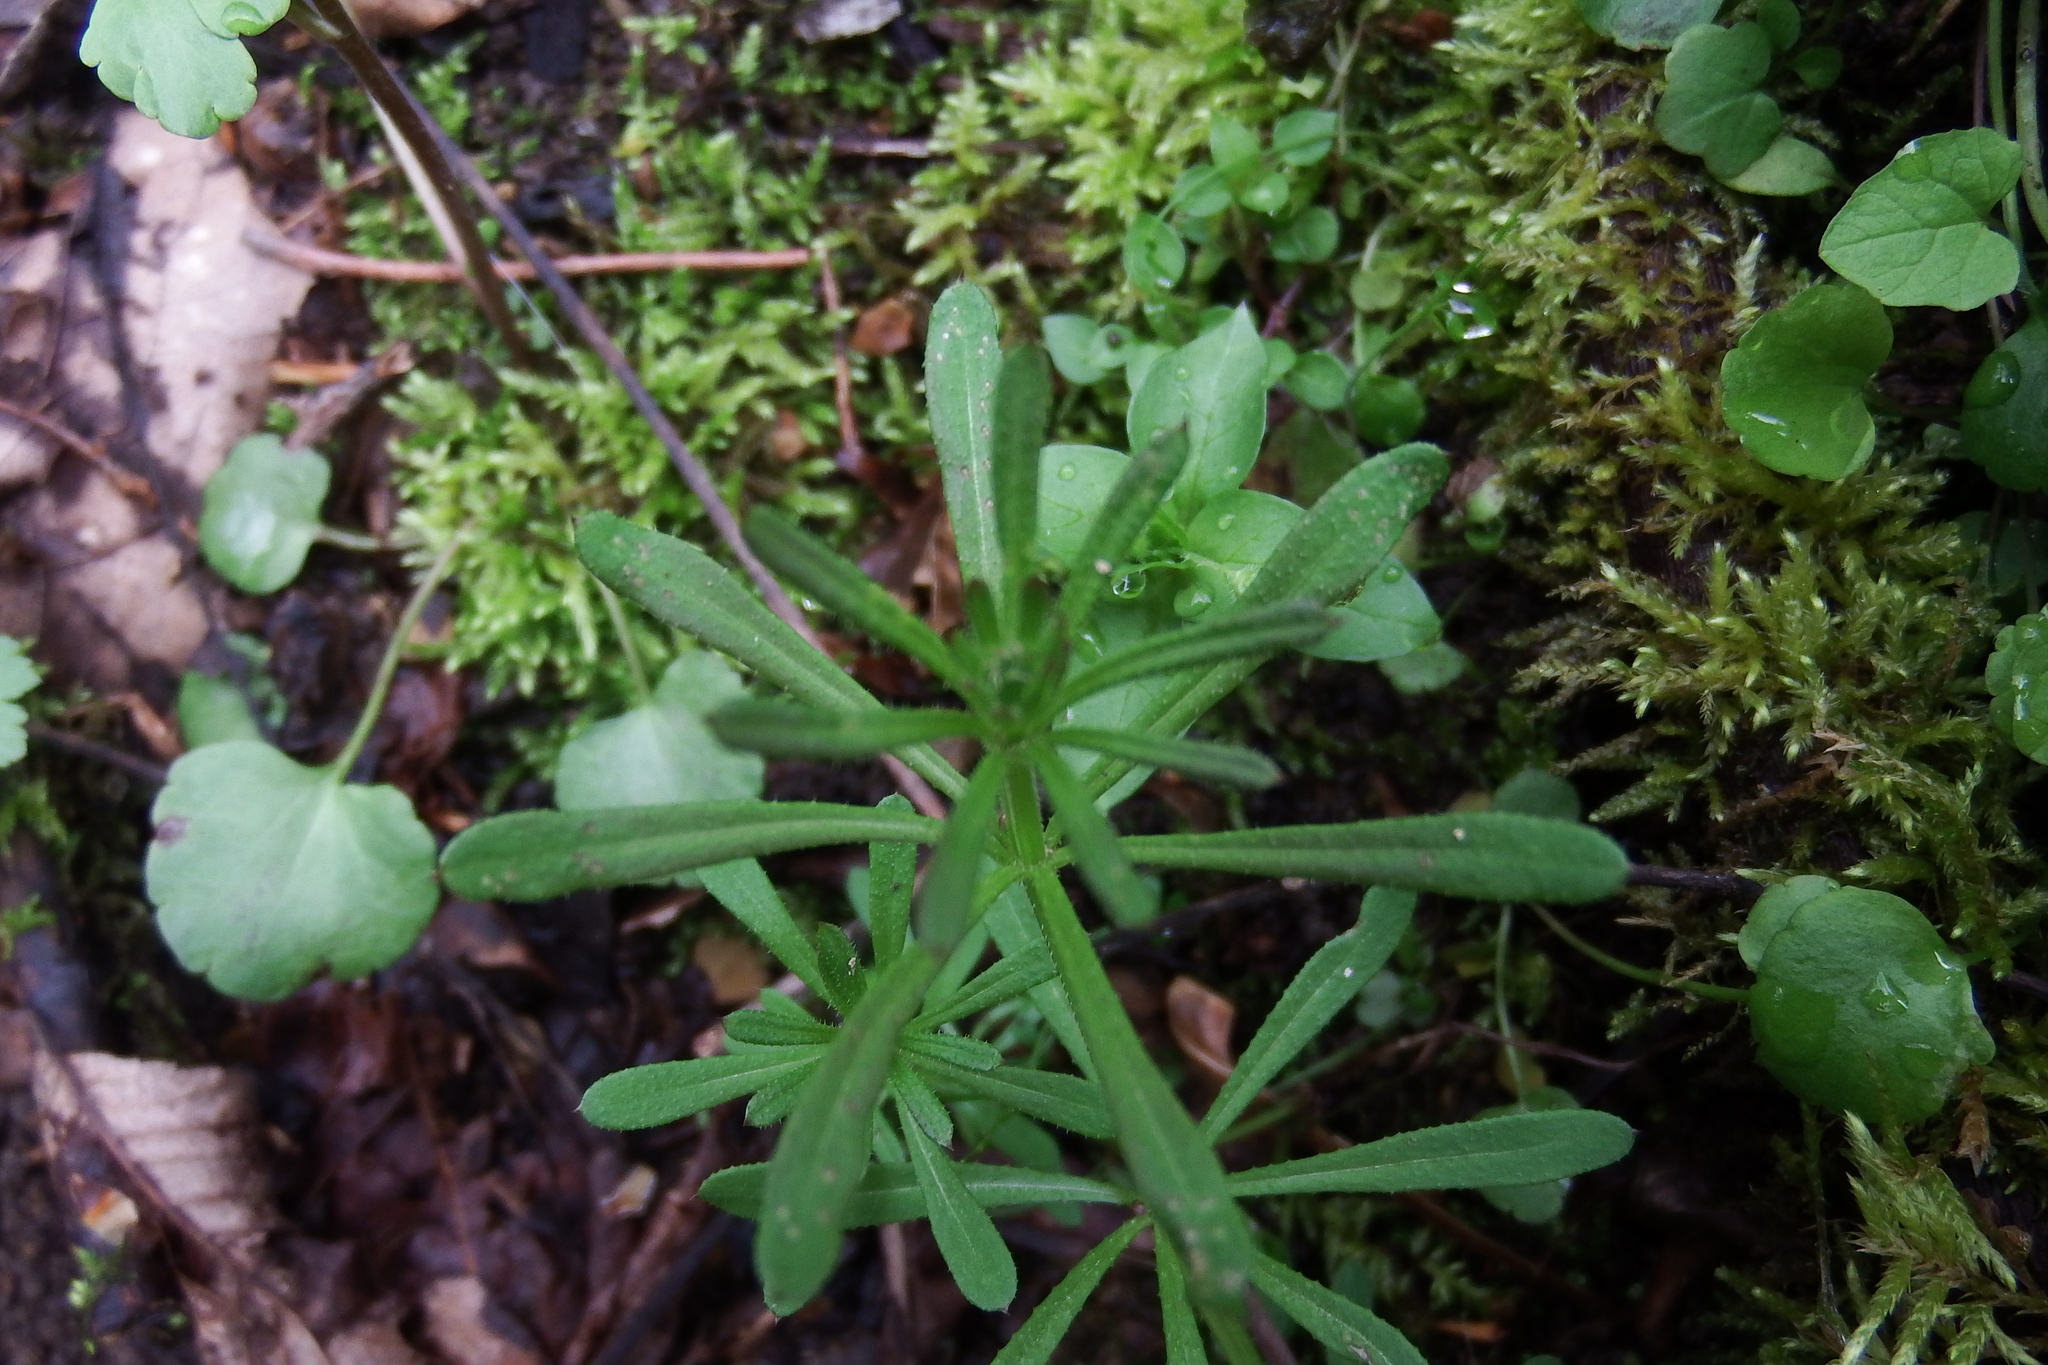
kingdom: Plantae
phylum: Tracheophyta
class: Magnoliopsida
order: Gentianales
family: Rubiaceae
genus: Galium
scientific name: Galium aparine
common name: Cleavers
